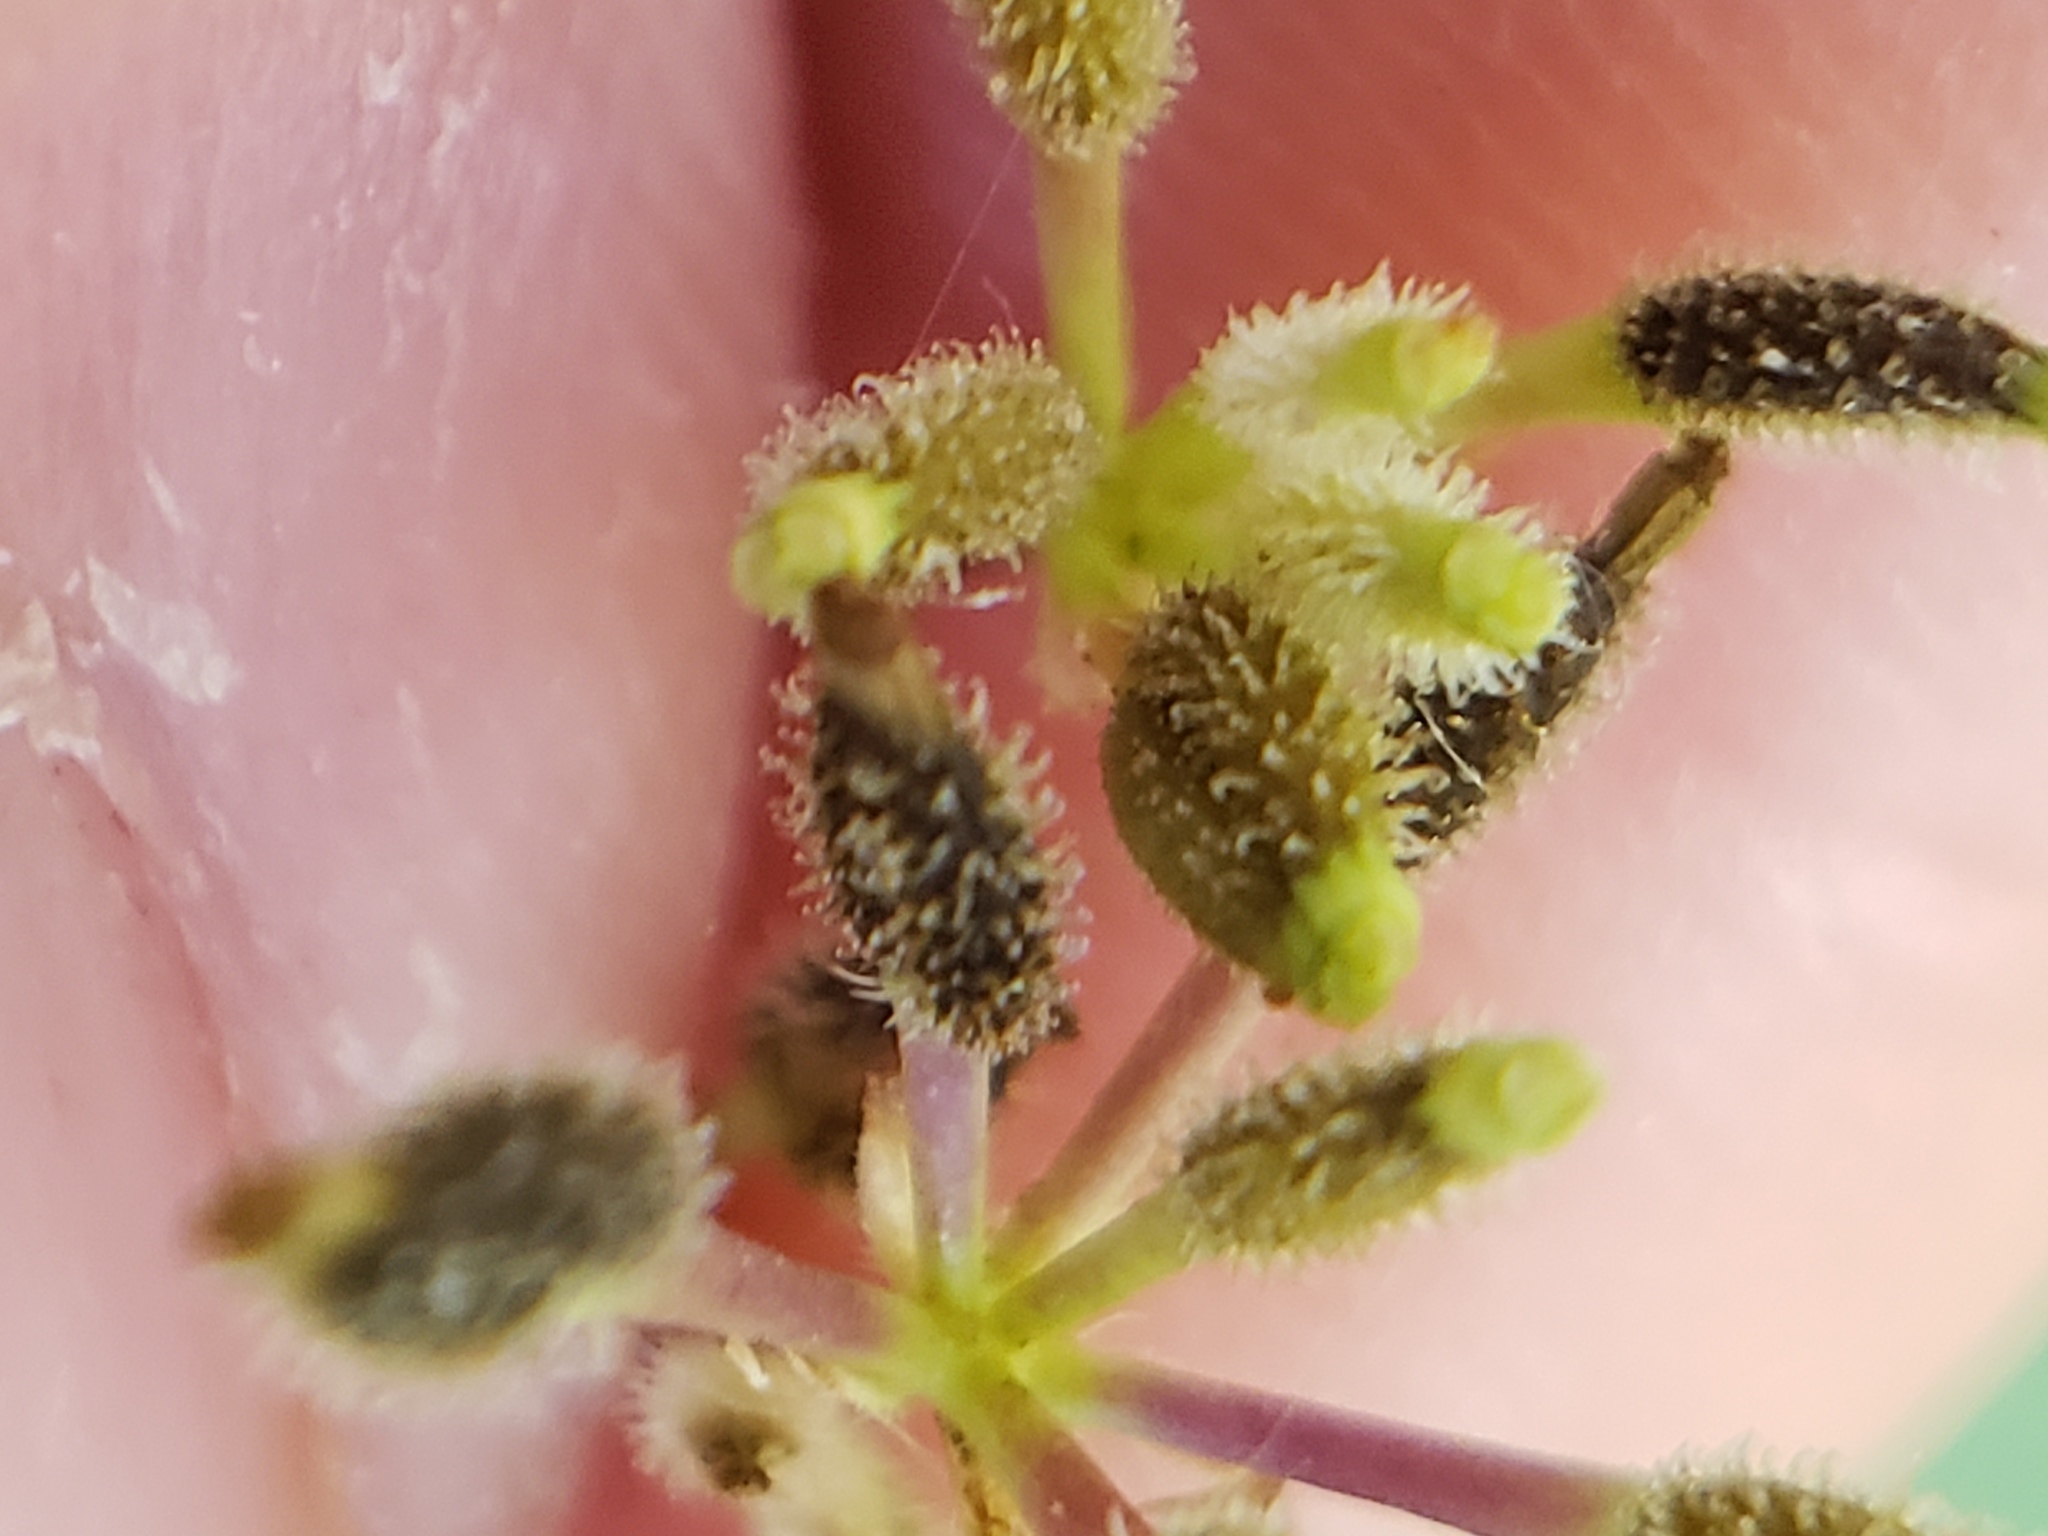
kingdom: Plantae
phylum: Tracheophyta
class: Magnoliopsida
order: Apiales
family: Apiaceae
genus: Anthriscus
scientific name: Anthriscus caucalis
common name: Bur chervil
